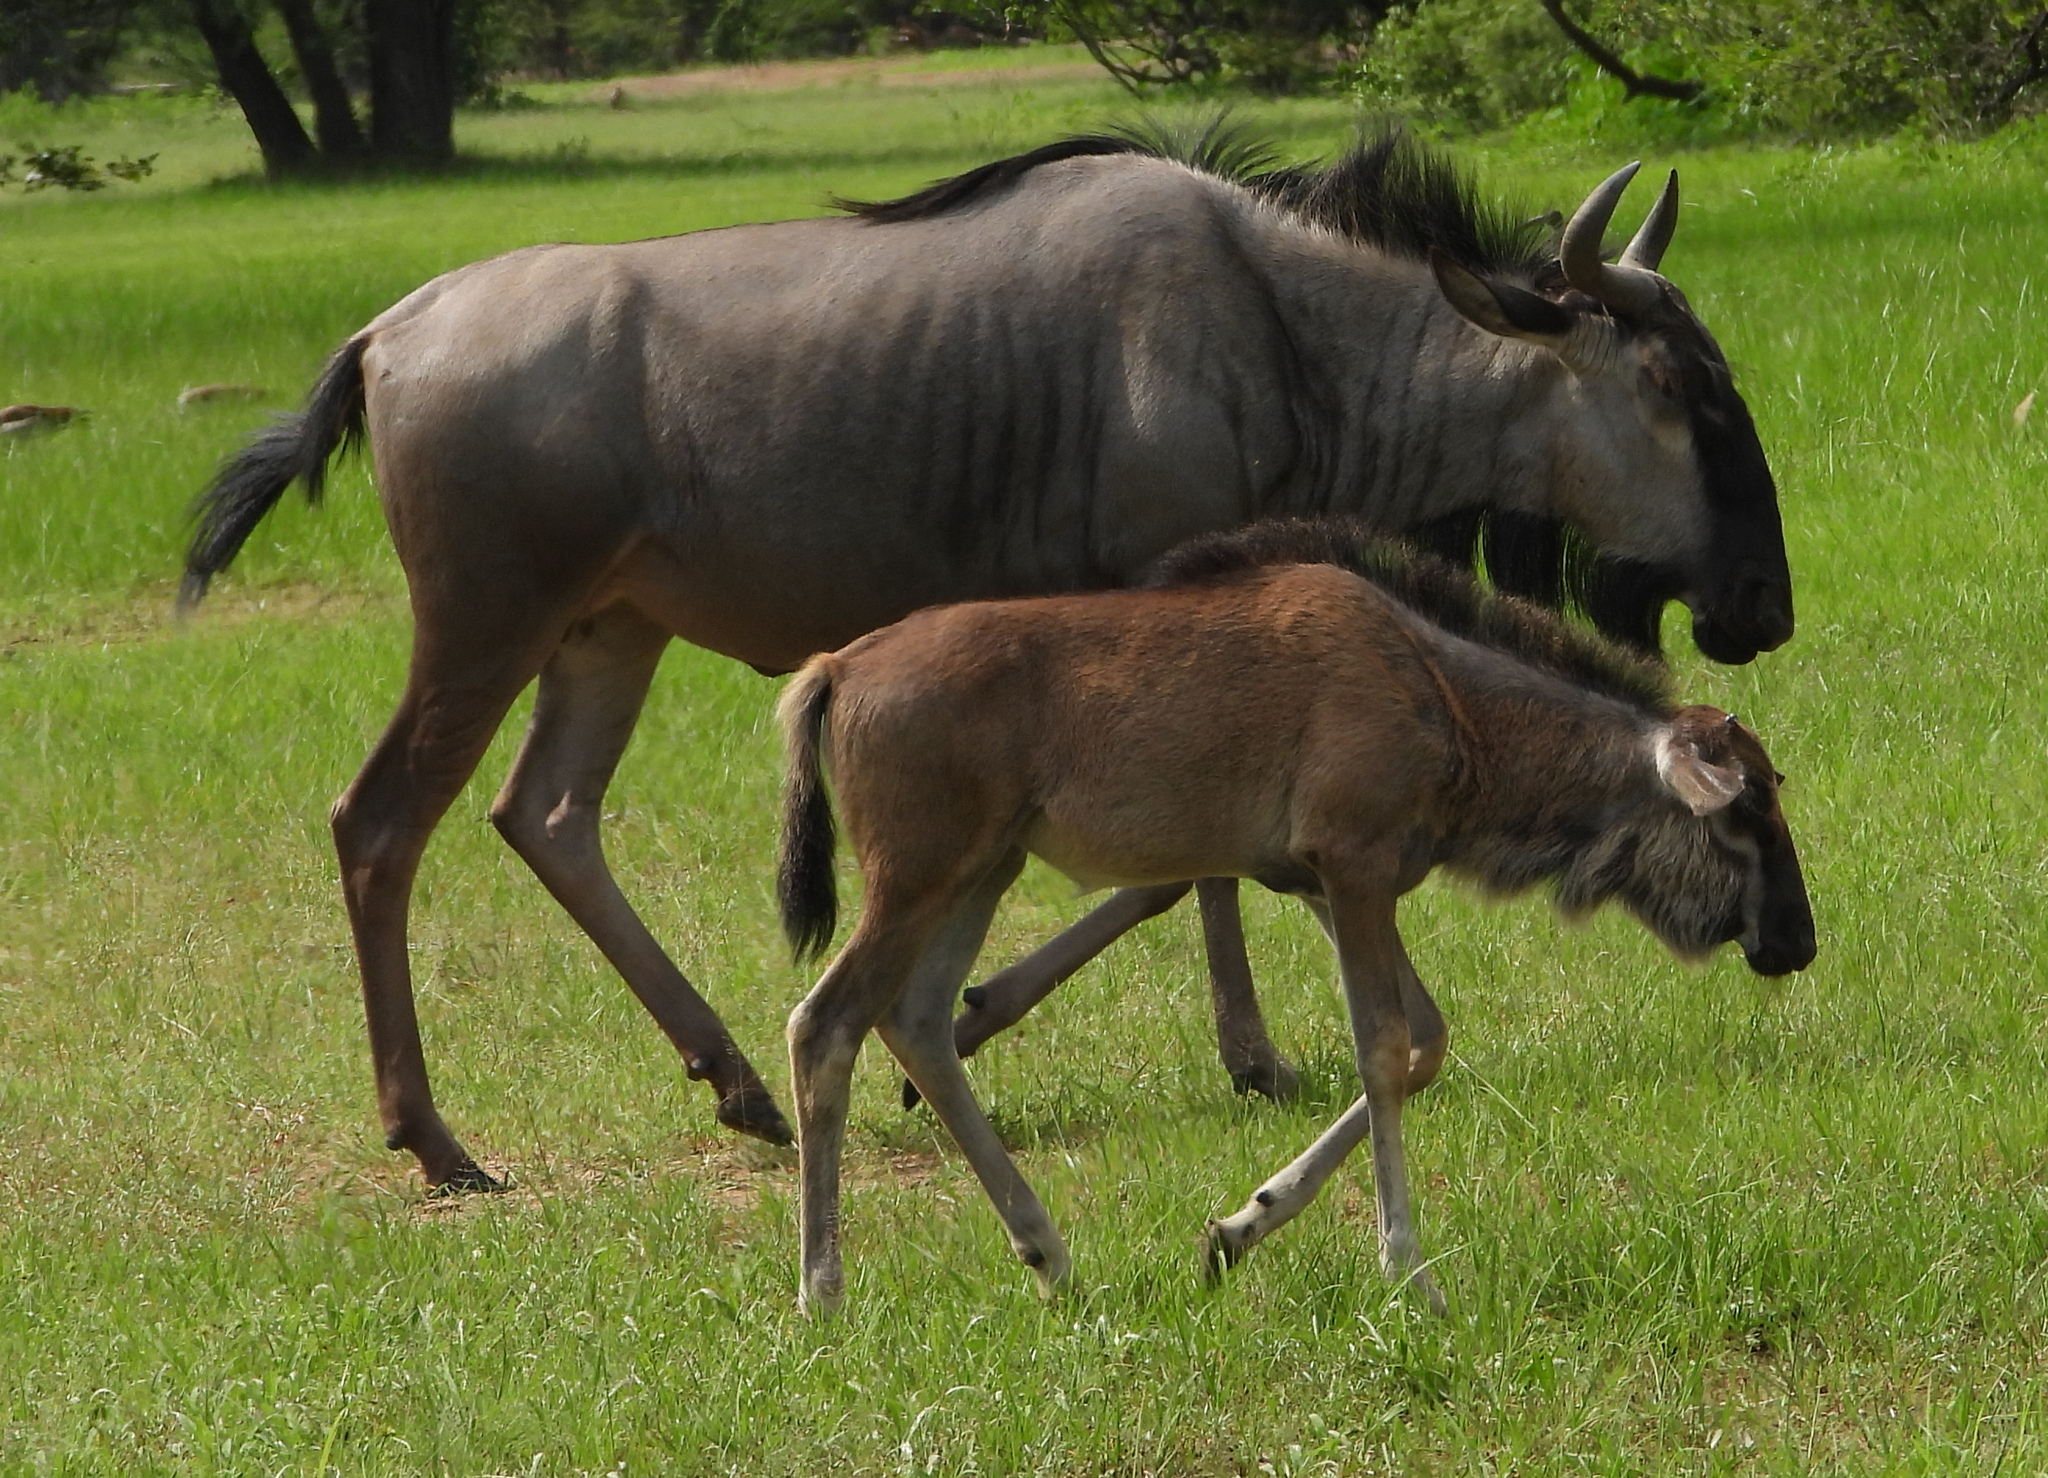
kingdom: Animalia
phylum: Chordata
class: Mammalia
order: Artiodactyla
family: Bovidae
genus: Connochaetes
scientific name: Connochaetes taurinus
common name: Blue wildebeest
